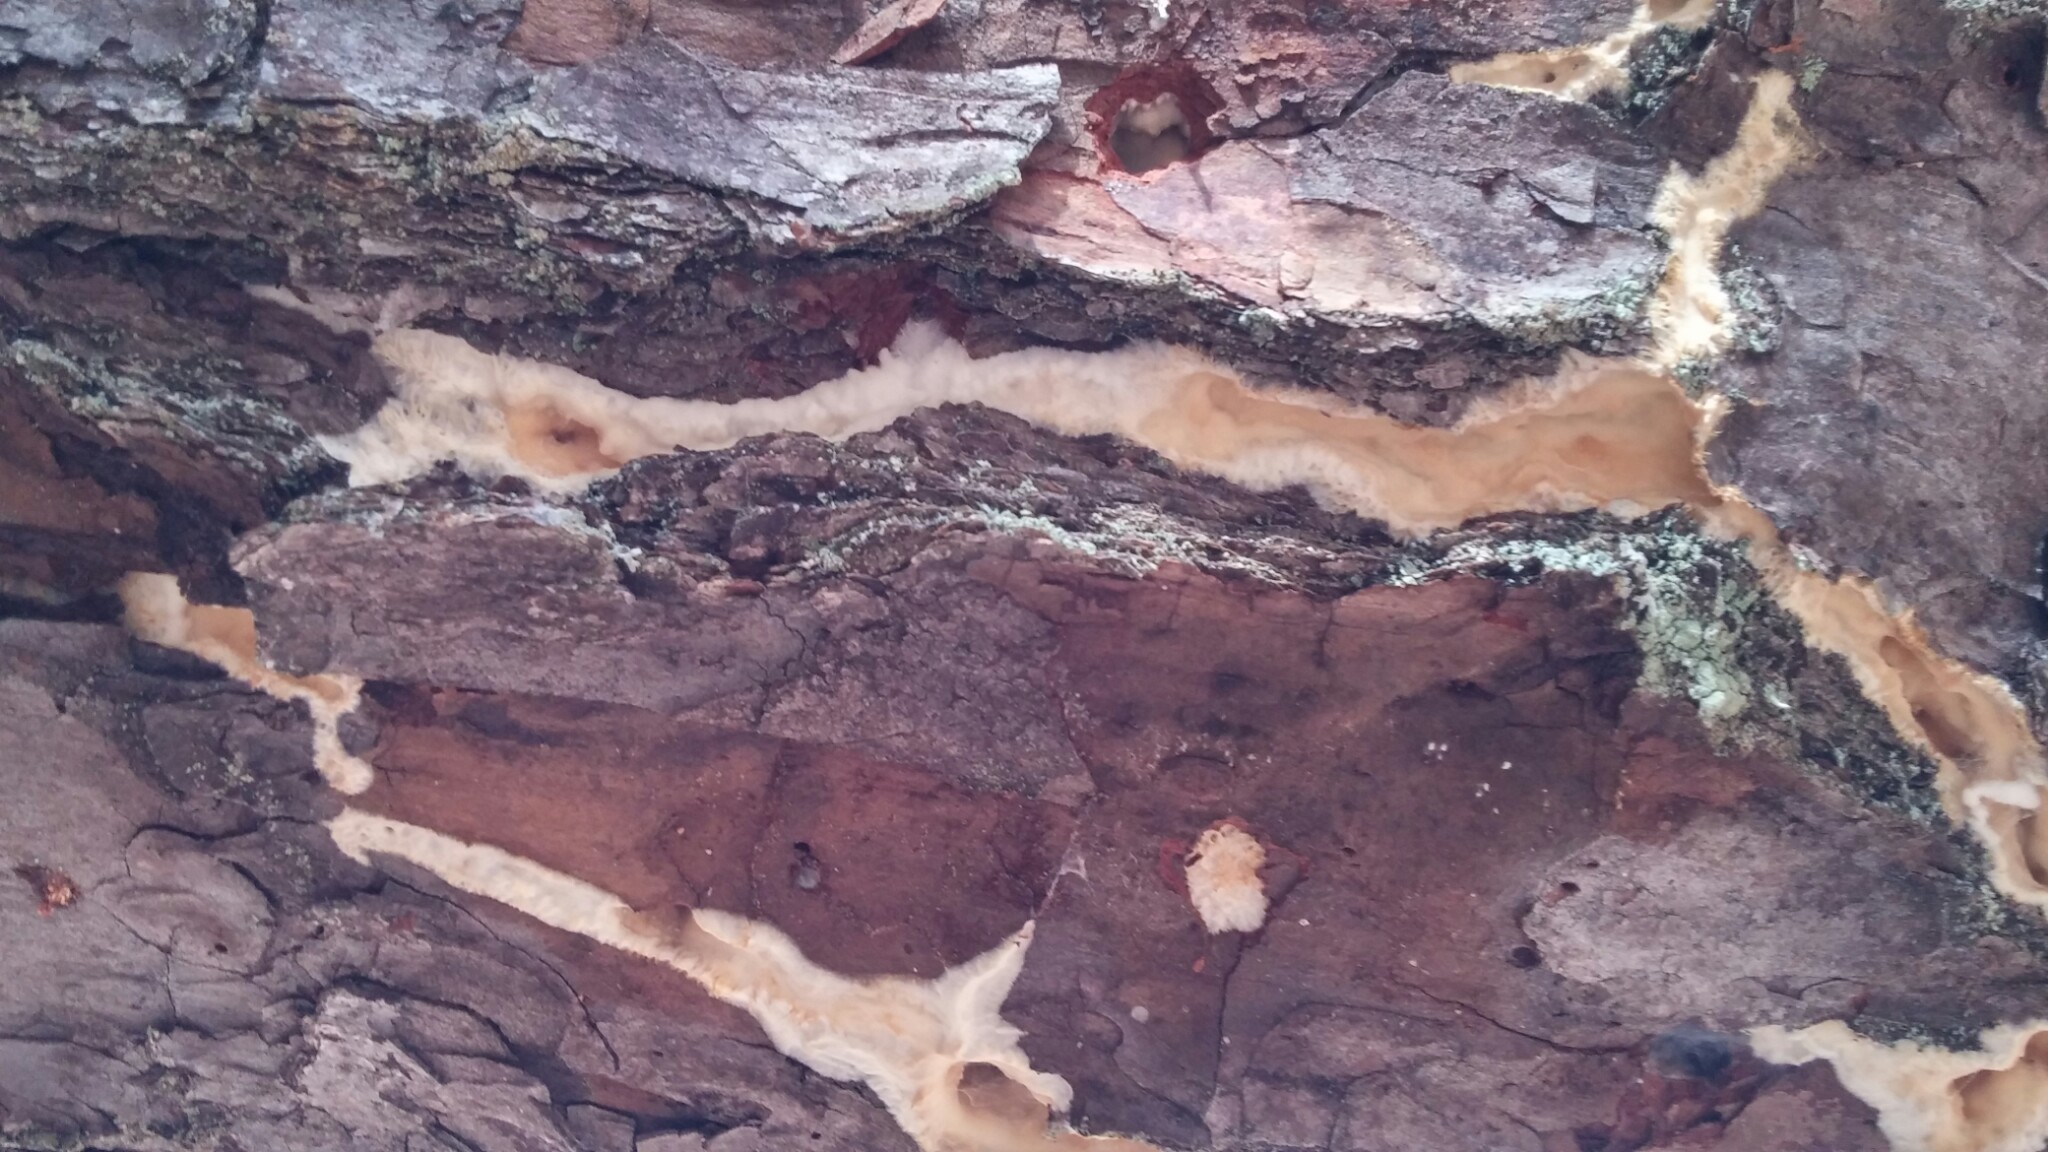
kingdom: Fungi
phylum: Basidiomycota
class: Agaricomycetes
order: Polyporales
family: Meruliaceae
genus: Phlebia
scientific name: Phlebia tremellosa
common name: Jelly rot
